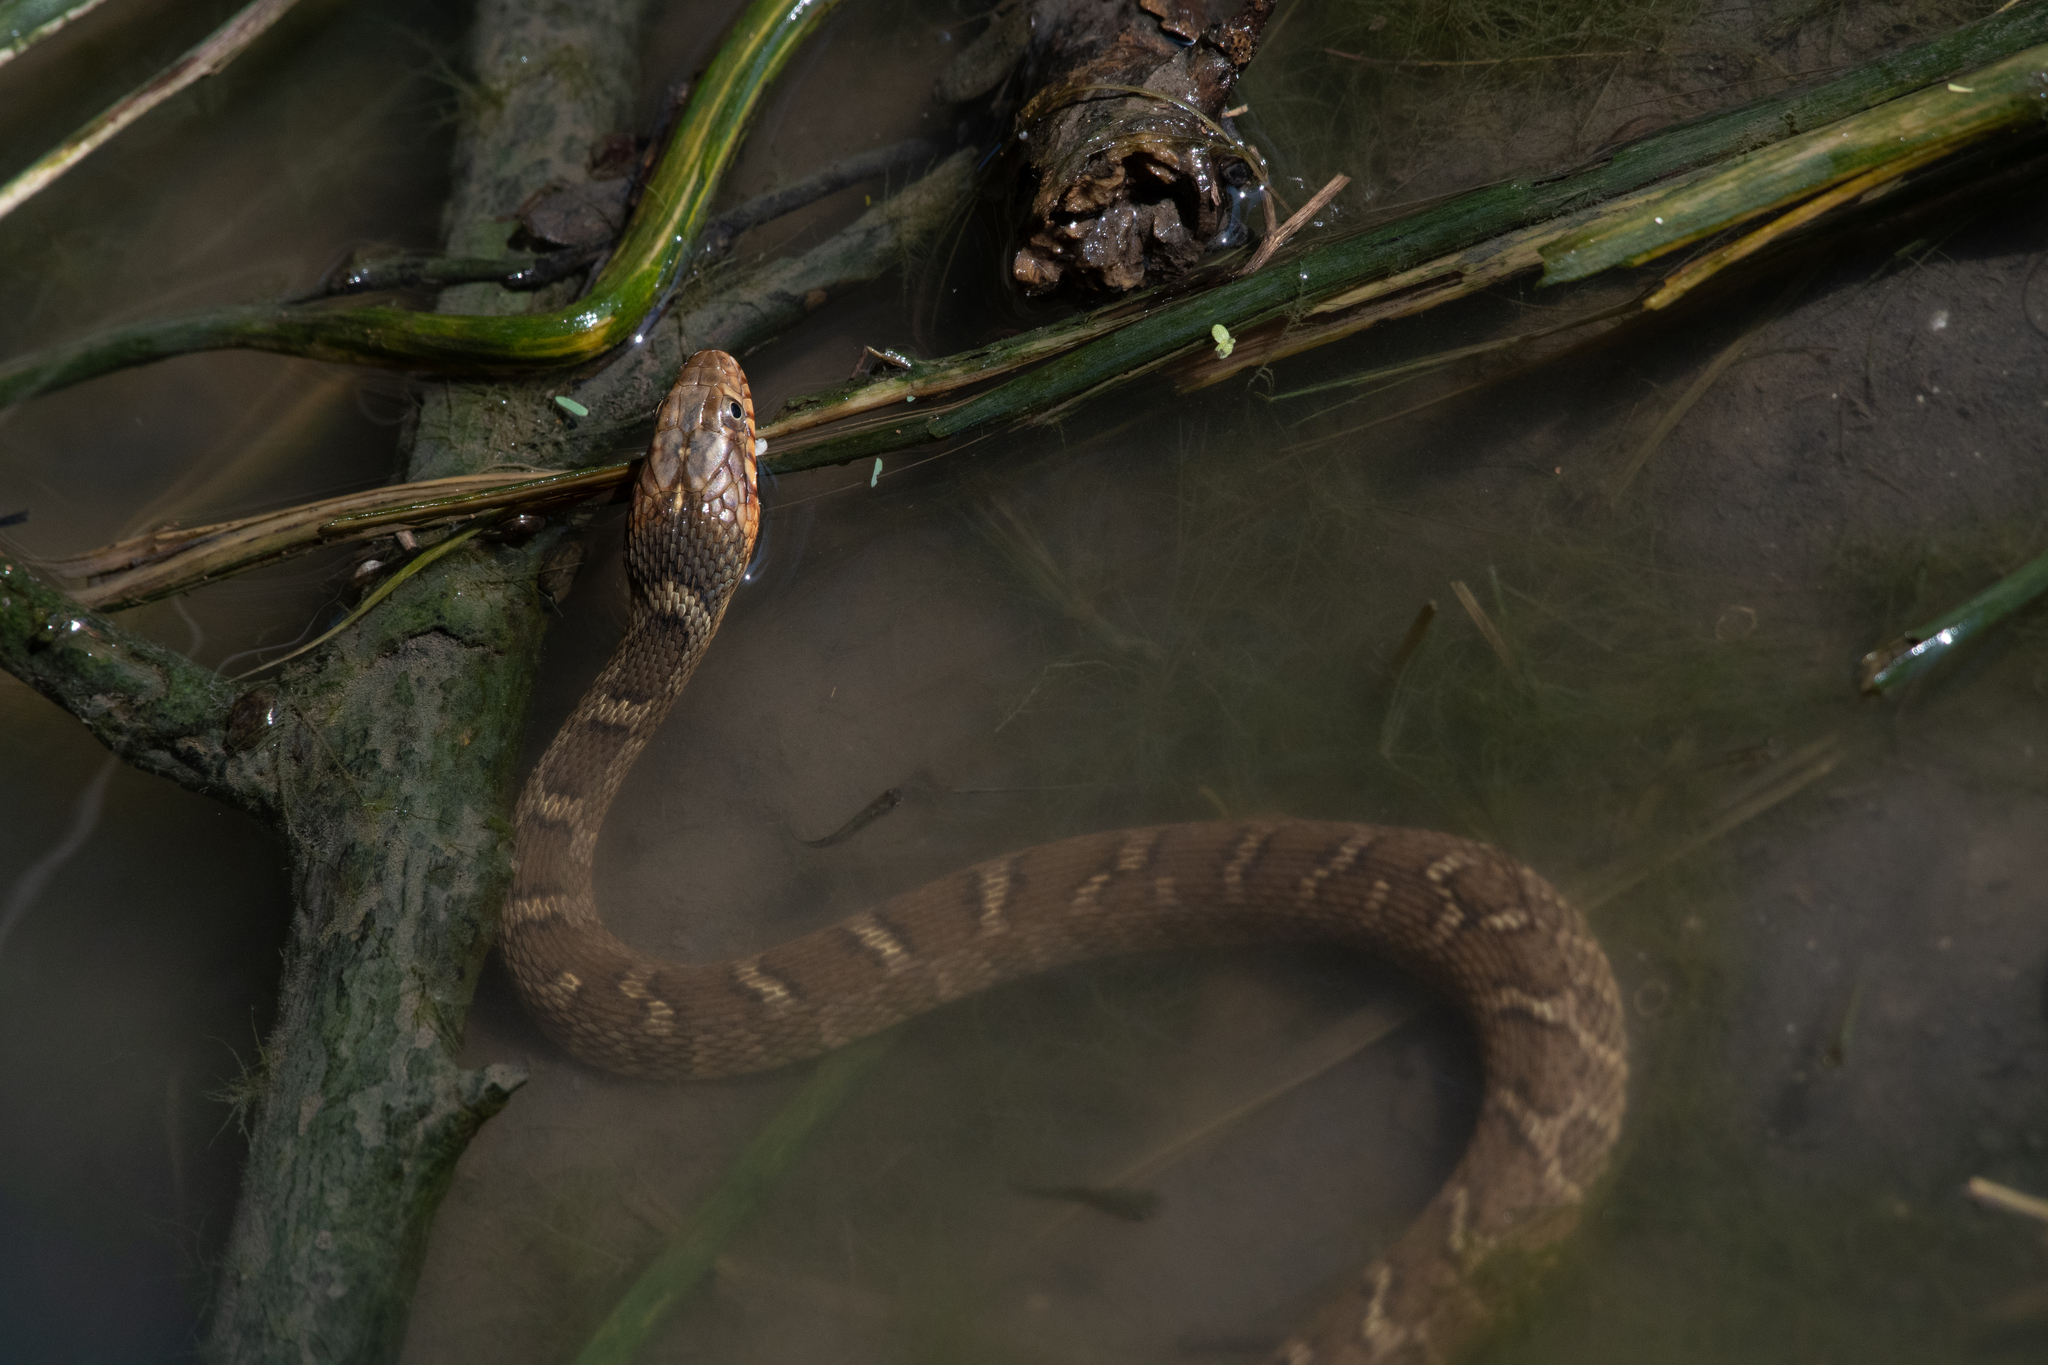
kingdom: Animalia
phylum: Chordata
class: Squamata
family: Colubridae
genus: Nerodia
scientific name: Nerodia erythrogaster
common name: Plainbelly water snake
